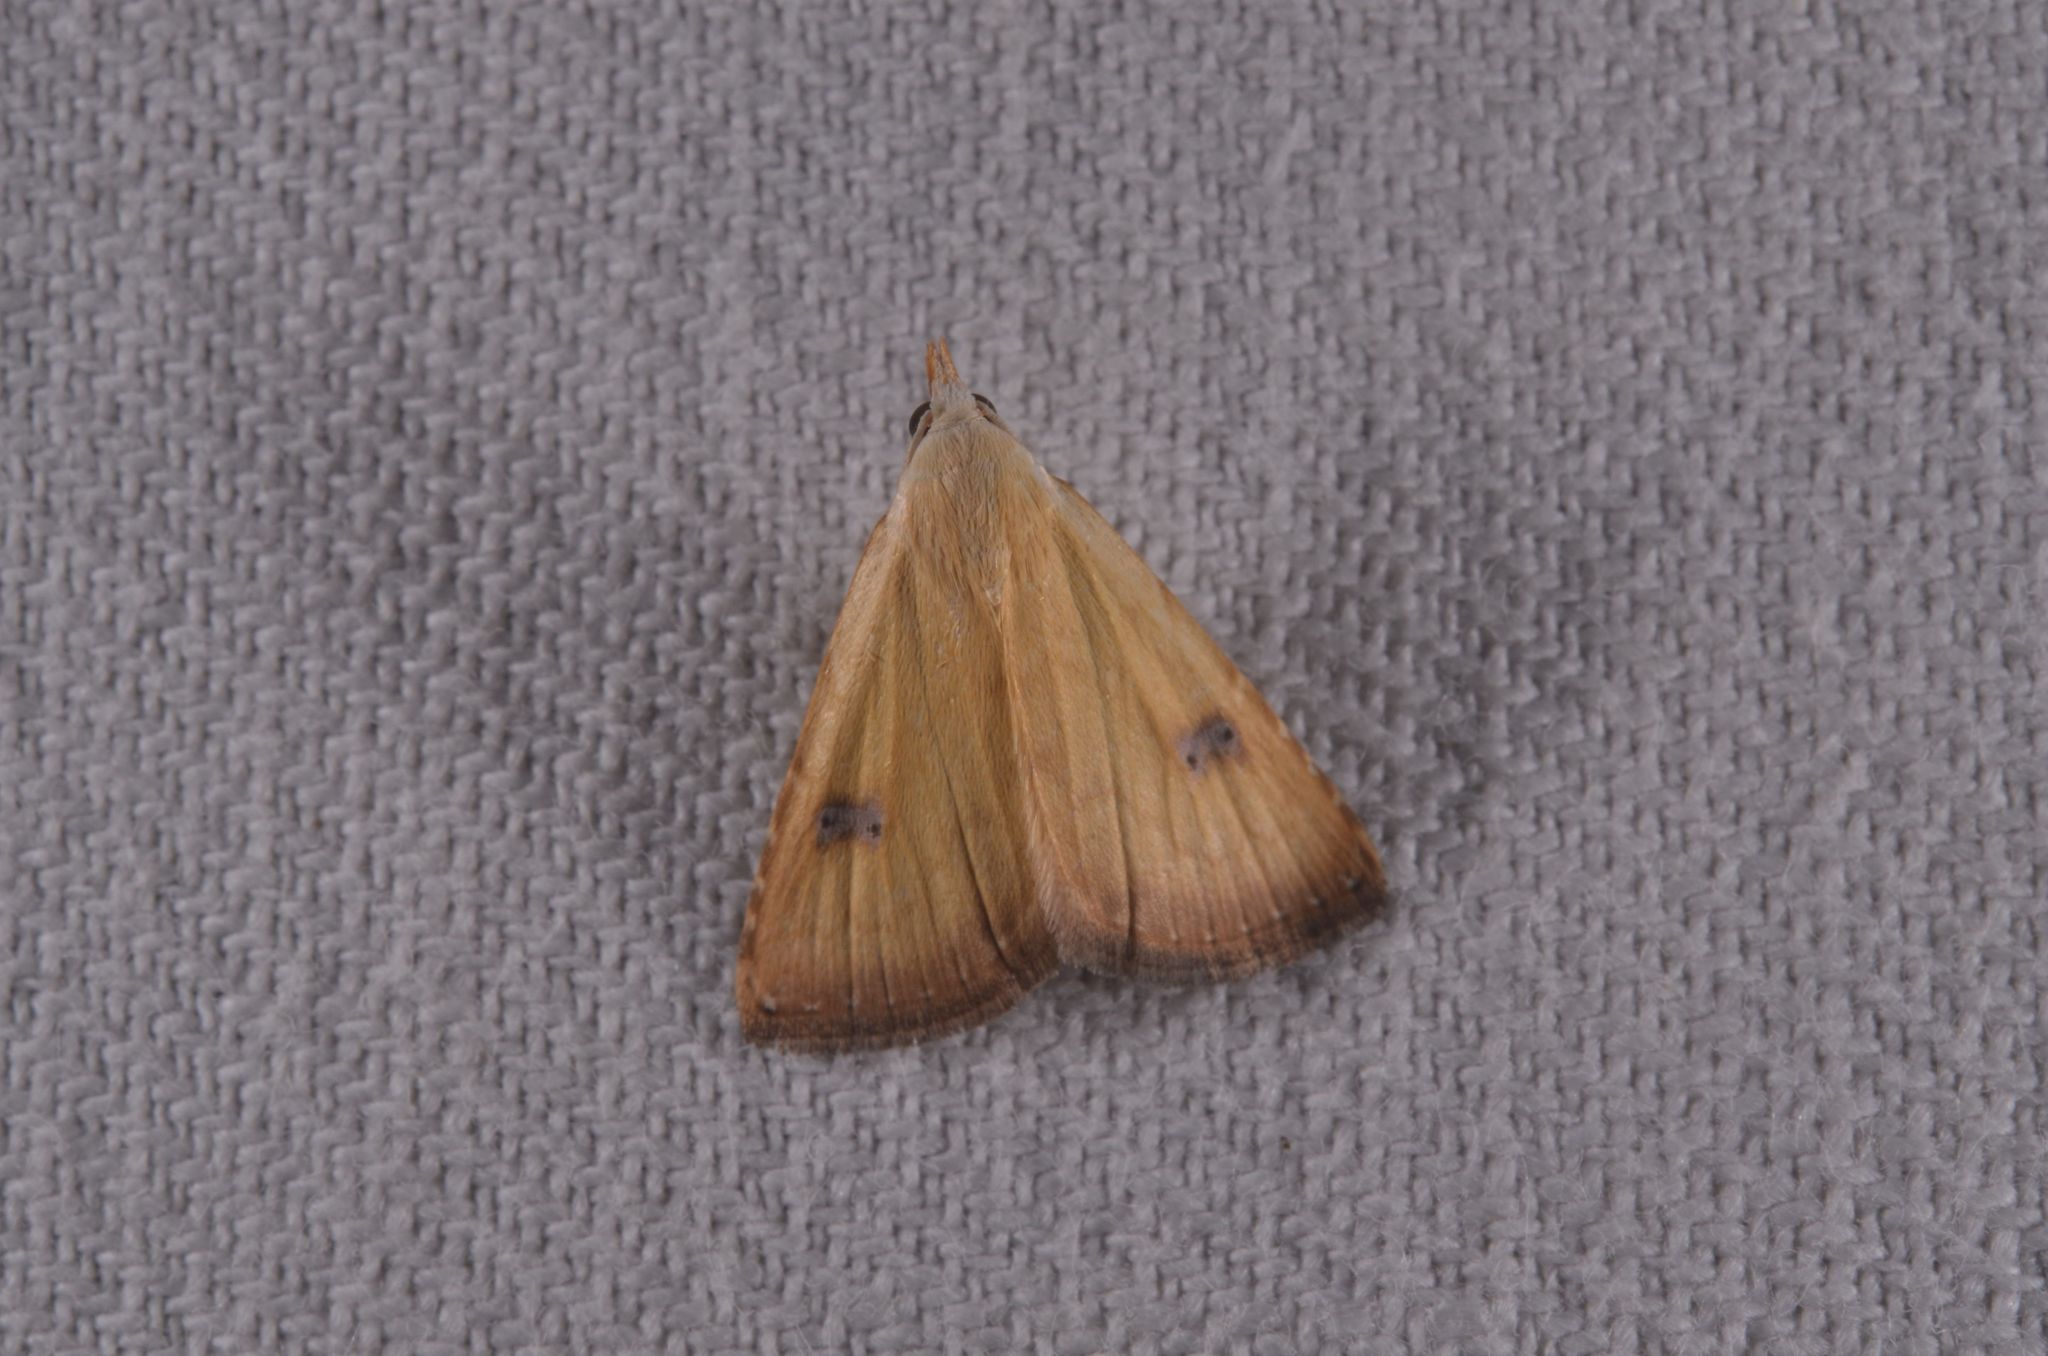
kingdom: Animalia
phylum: Arthropoda
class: Insecta
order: Lepidoptera
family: Erebidae
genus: Rivula
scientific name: Rivula sericealis
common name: Straw dot
